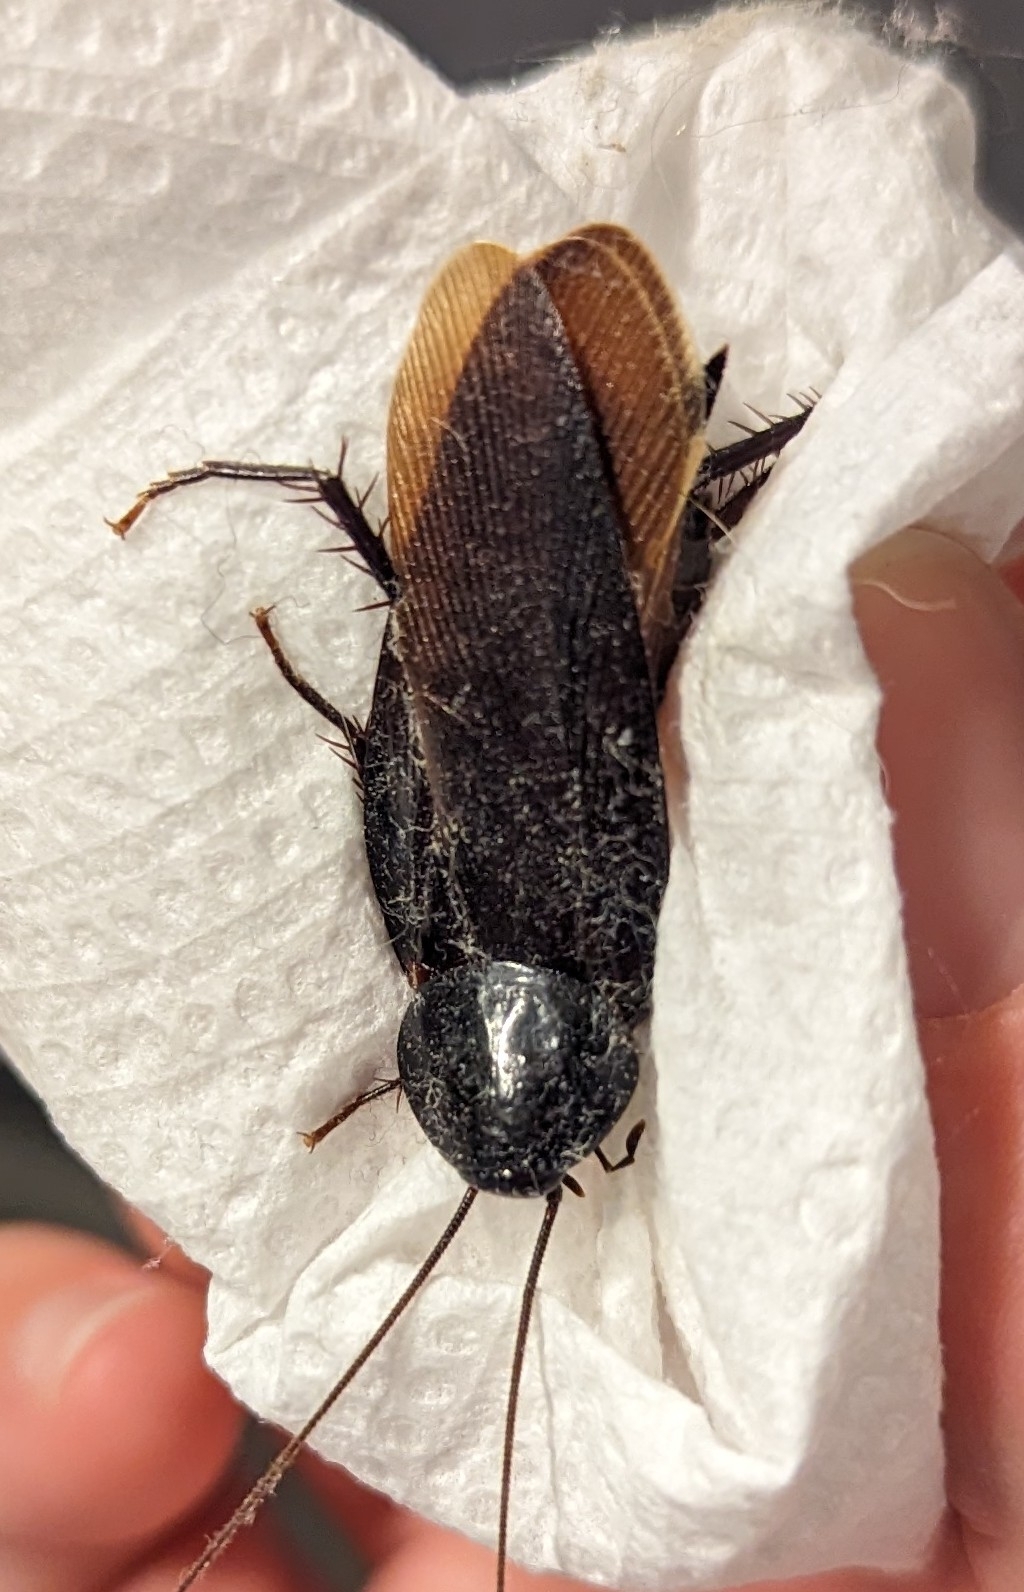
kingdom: Animalia
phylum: Arthropoda
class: Insecta
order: Blattodea
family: Blattidae
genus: Periplaneta
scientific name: Periplaneta fuliginosa
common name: Smokeybrown cockroad
